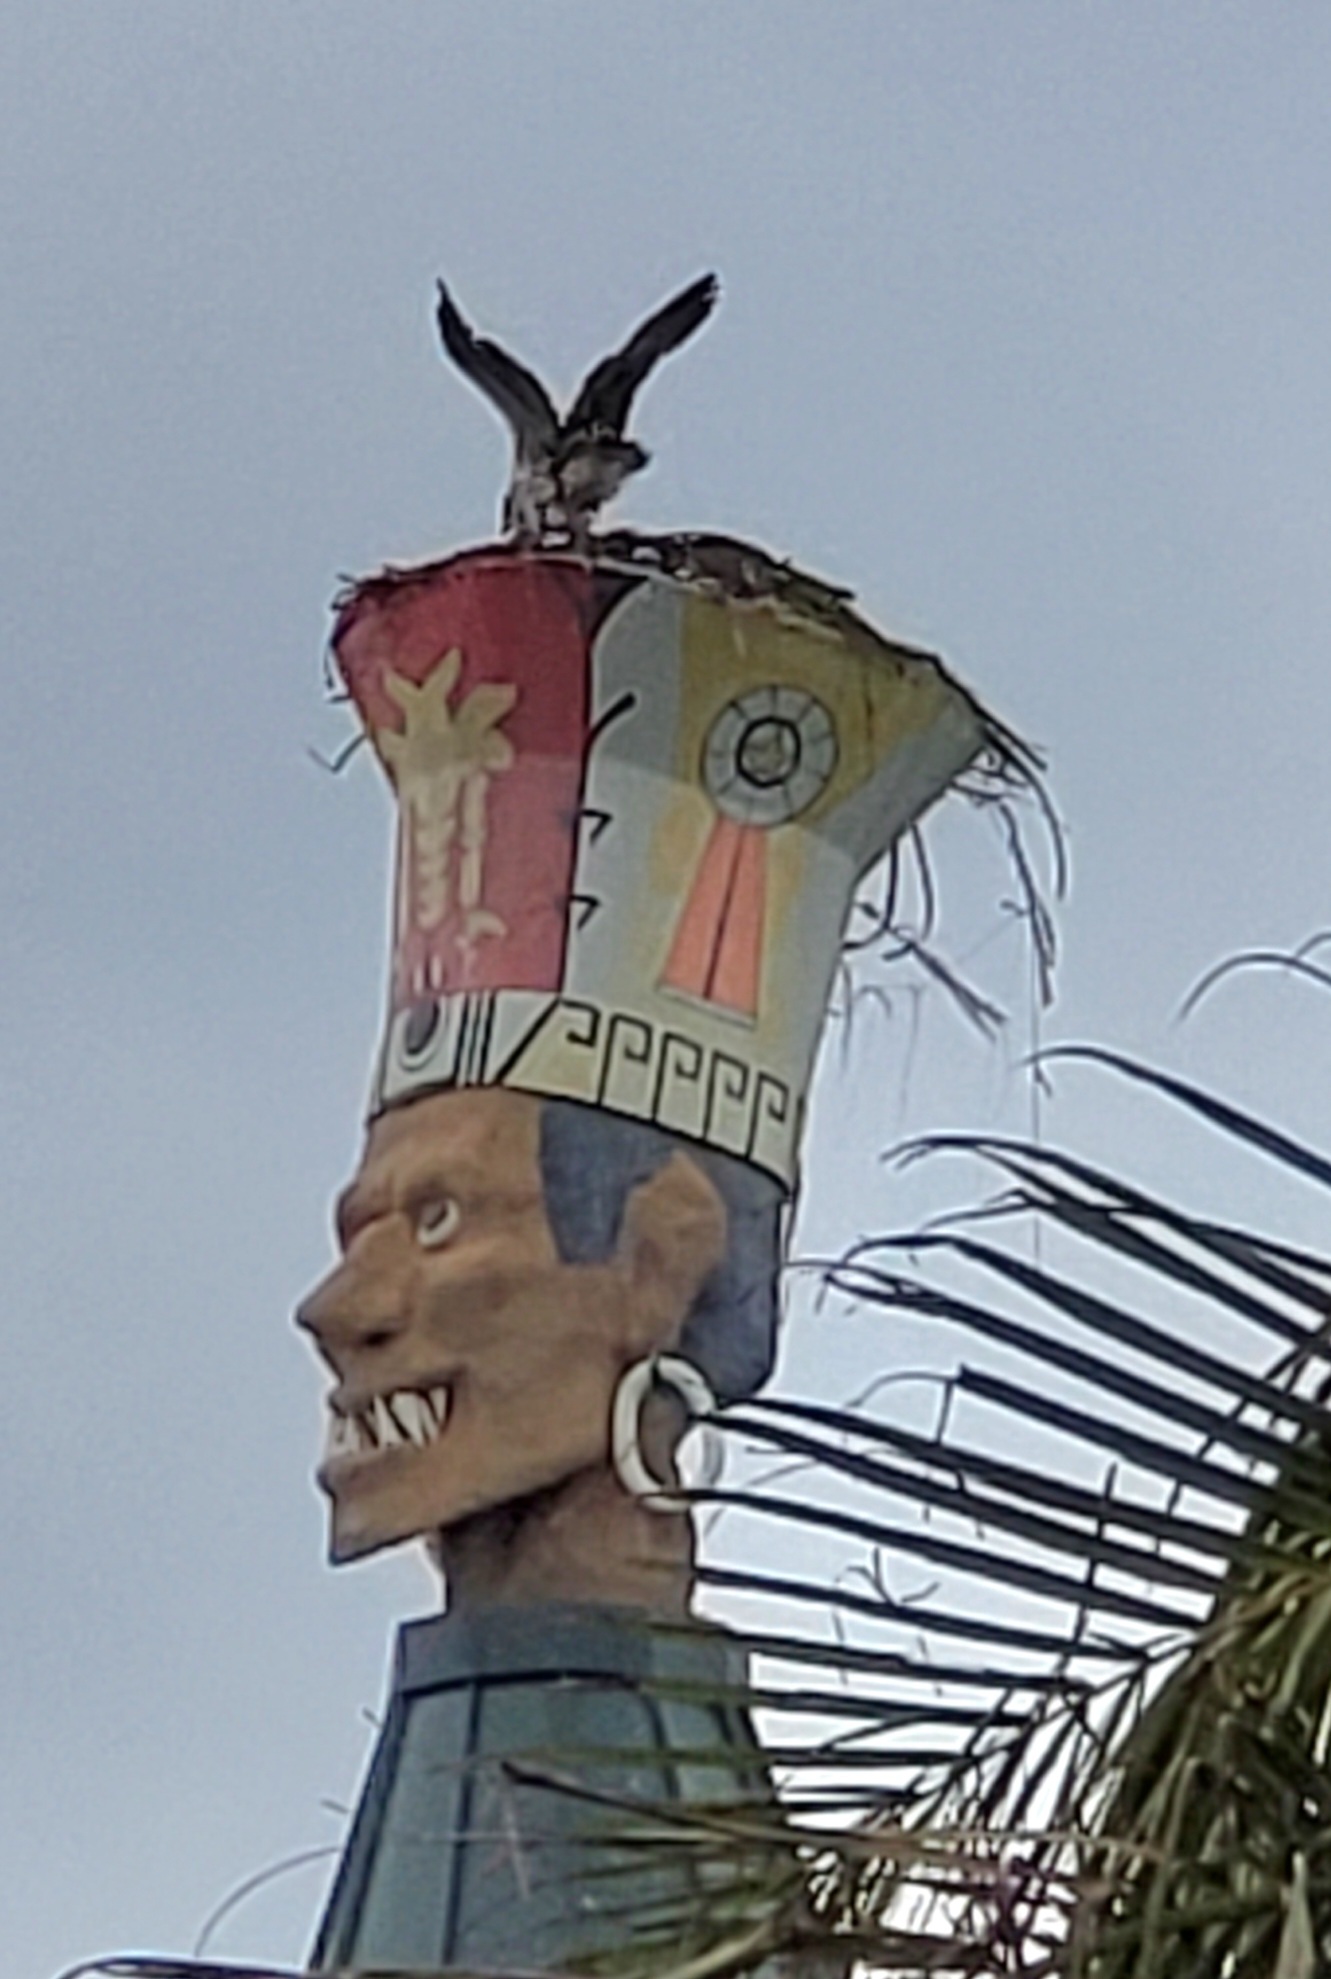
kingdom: Animalia
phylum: Chordata
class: Aves
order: Accipitriformes
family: Pandionidae
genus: Pandion
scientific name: Pandion haliaetus
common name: Osprey
